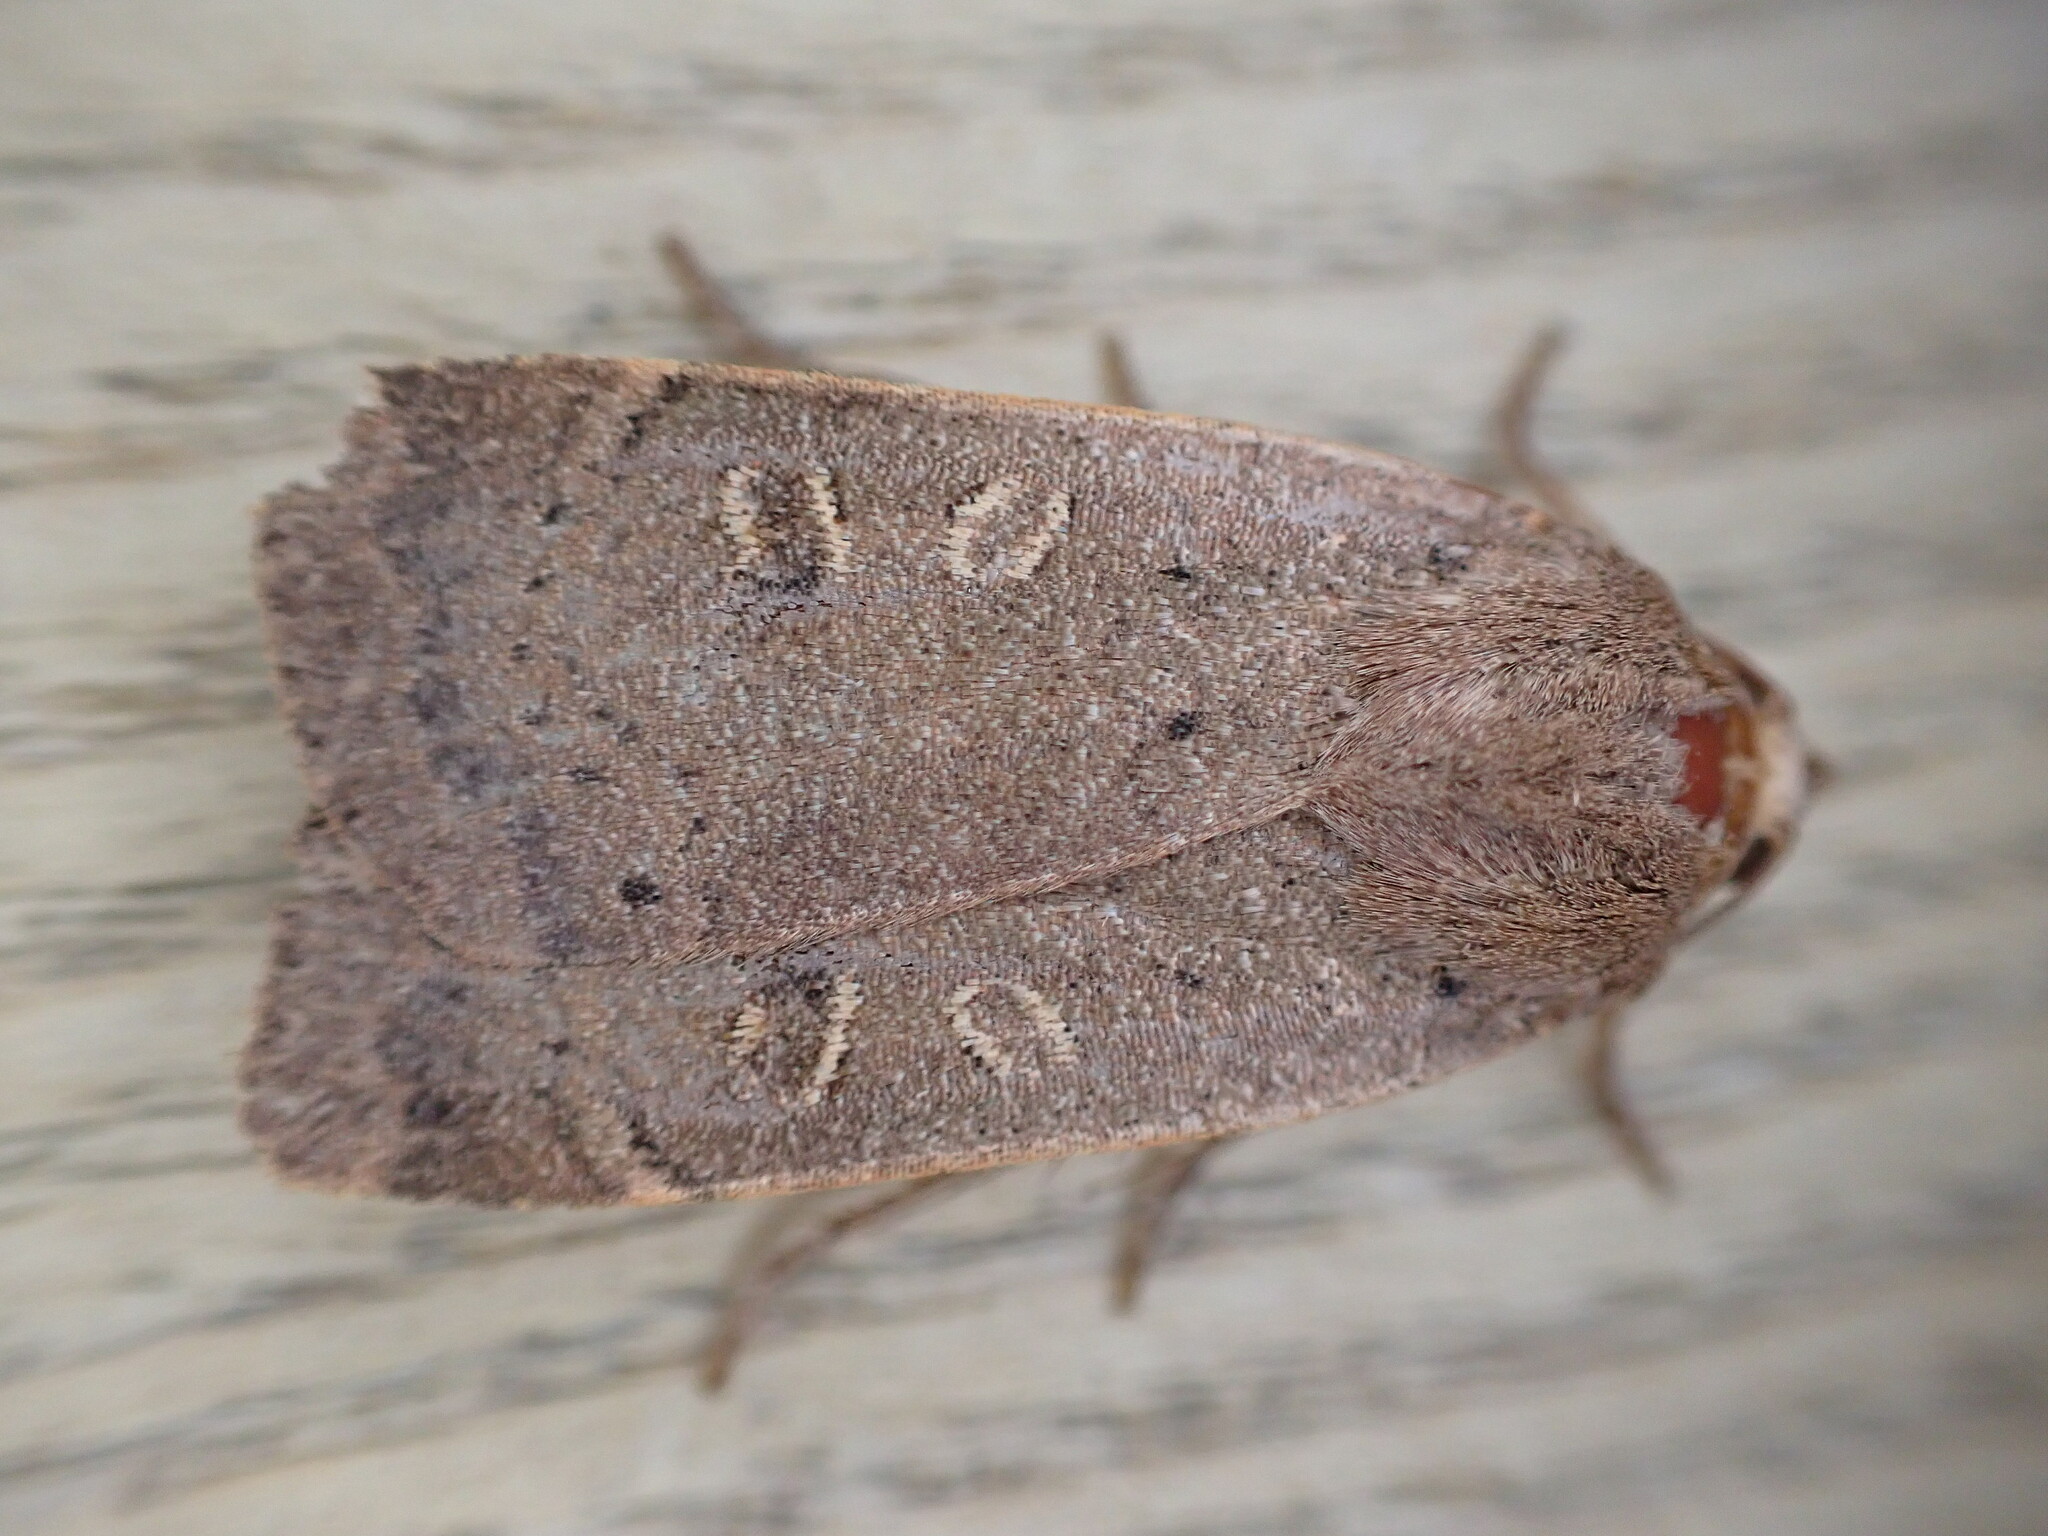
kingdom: Animalia
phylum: Arthropoda
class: Insecta
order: Lepidoptera
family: Noctuidae
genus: Noctua
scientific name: Noctua comes
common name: Lesser yellow underwing
